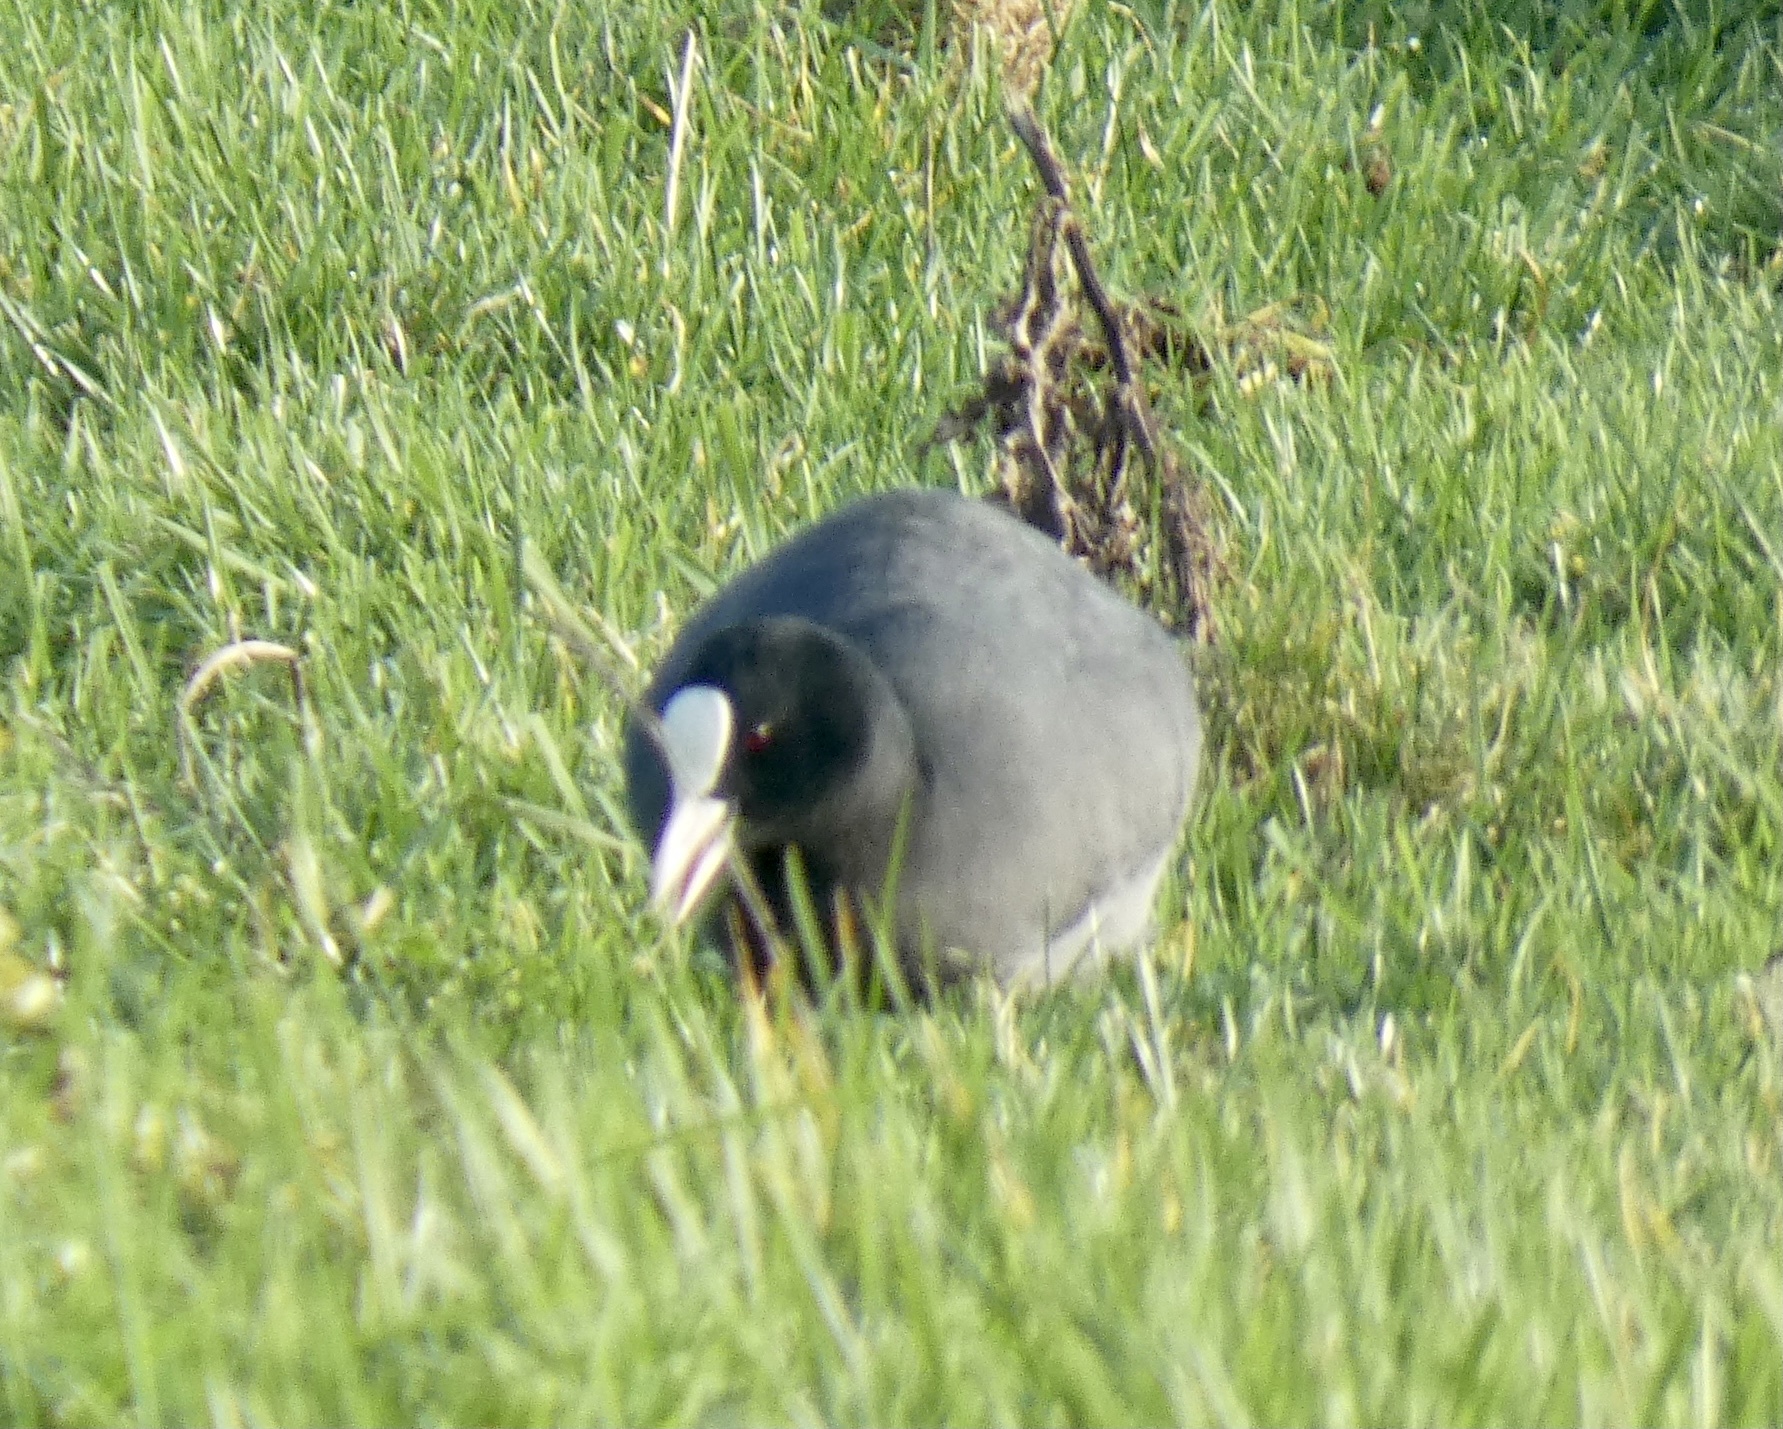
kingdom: Animalia
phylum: Chordata
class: Aves
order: Gruiformes
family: Rallidae
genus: Fulica
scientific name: Fulica atra
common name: Eurasian coot
